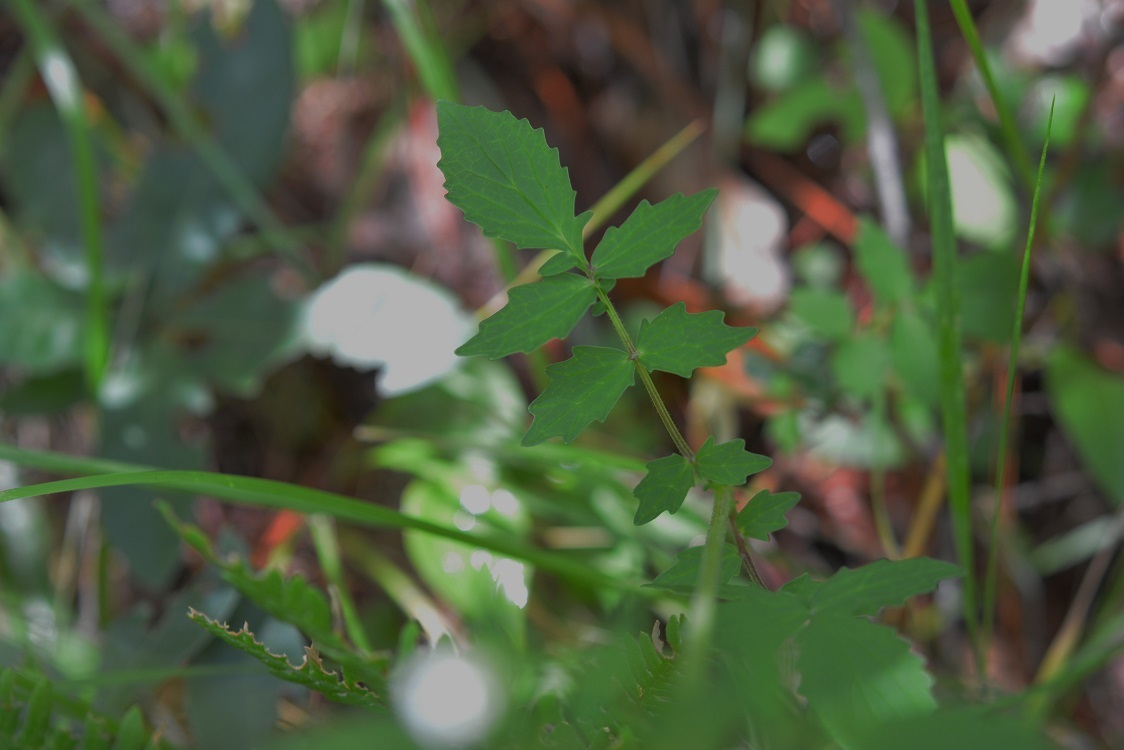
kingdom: Plantae
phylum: Tracheophyta
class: Magnoliopsida
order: Dipsacales
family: Caprifoliaceae
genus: Valeriana
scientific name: Valeriana sorbifolia
